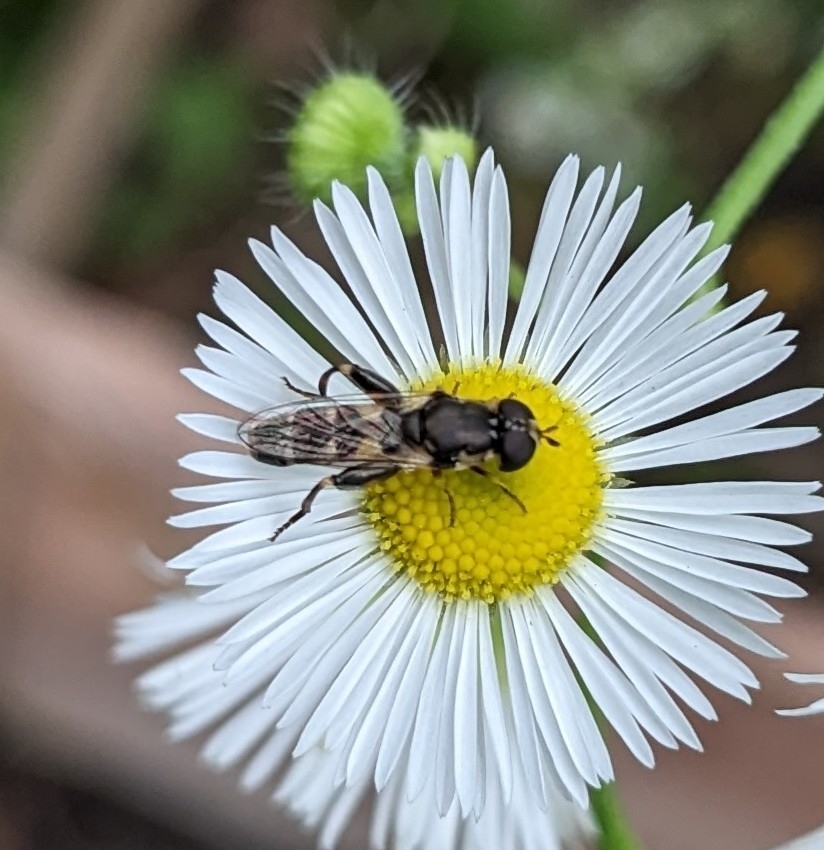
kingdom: Animalia
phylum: Arthropoda
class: Insecta
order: Diptera
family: Syrphidae
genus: Syritta
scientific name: Syritta pipiens
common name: Hover fly
